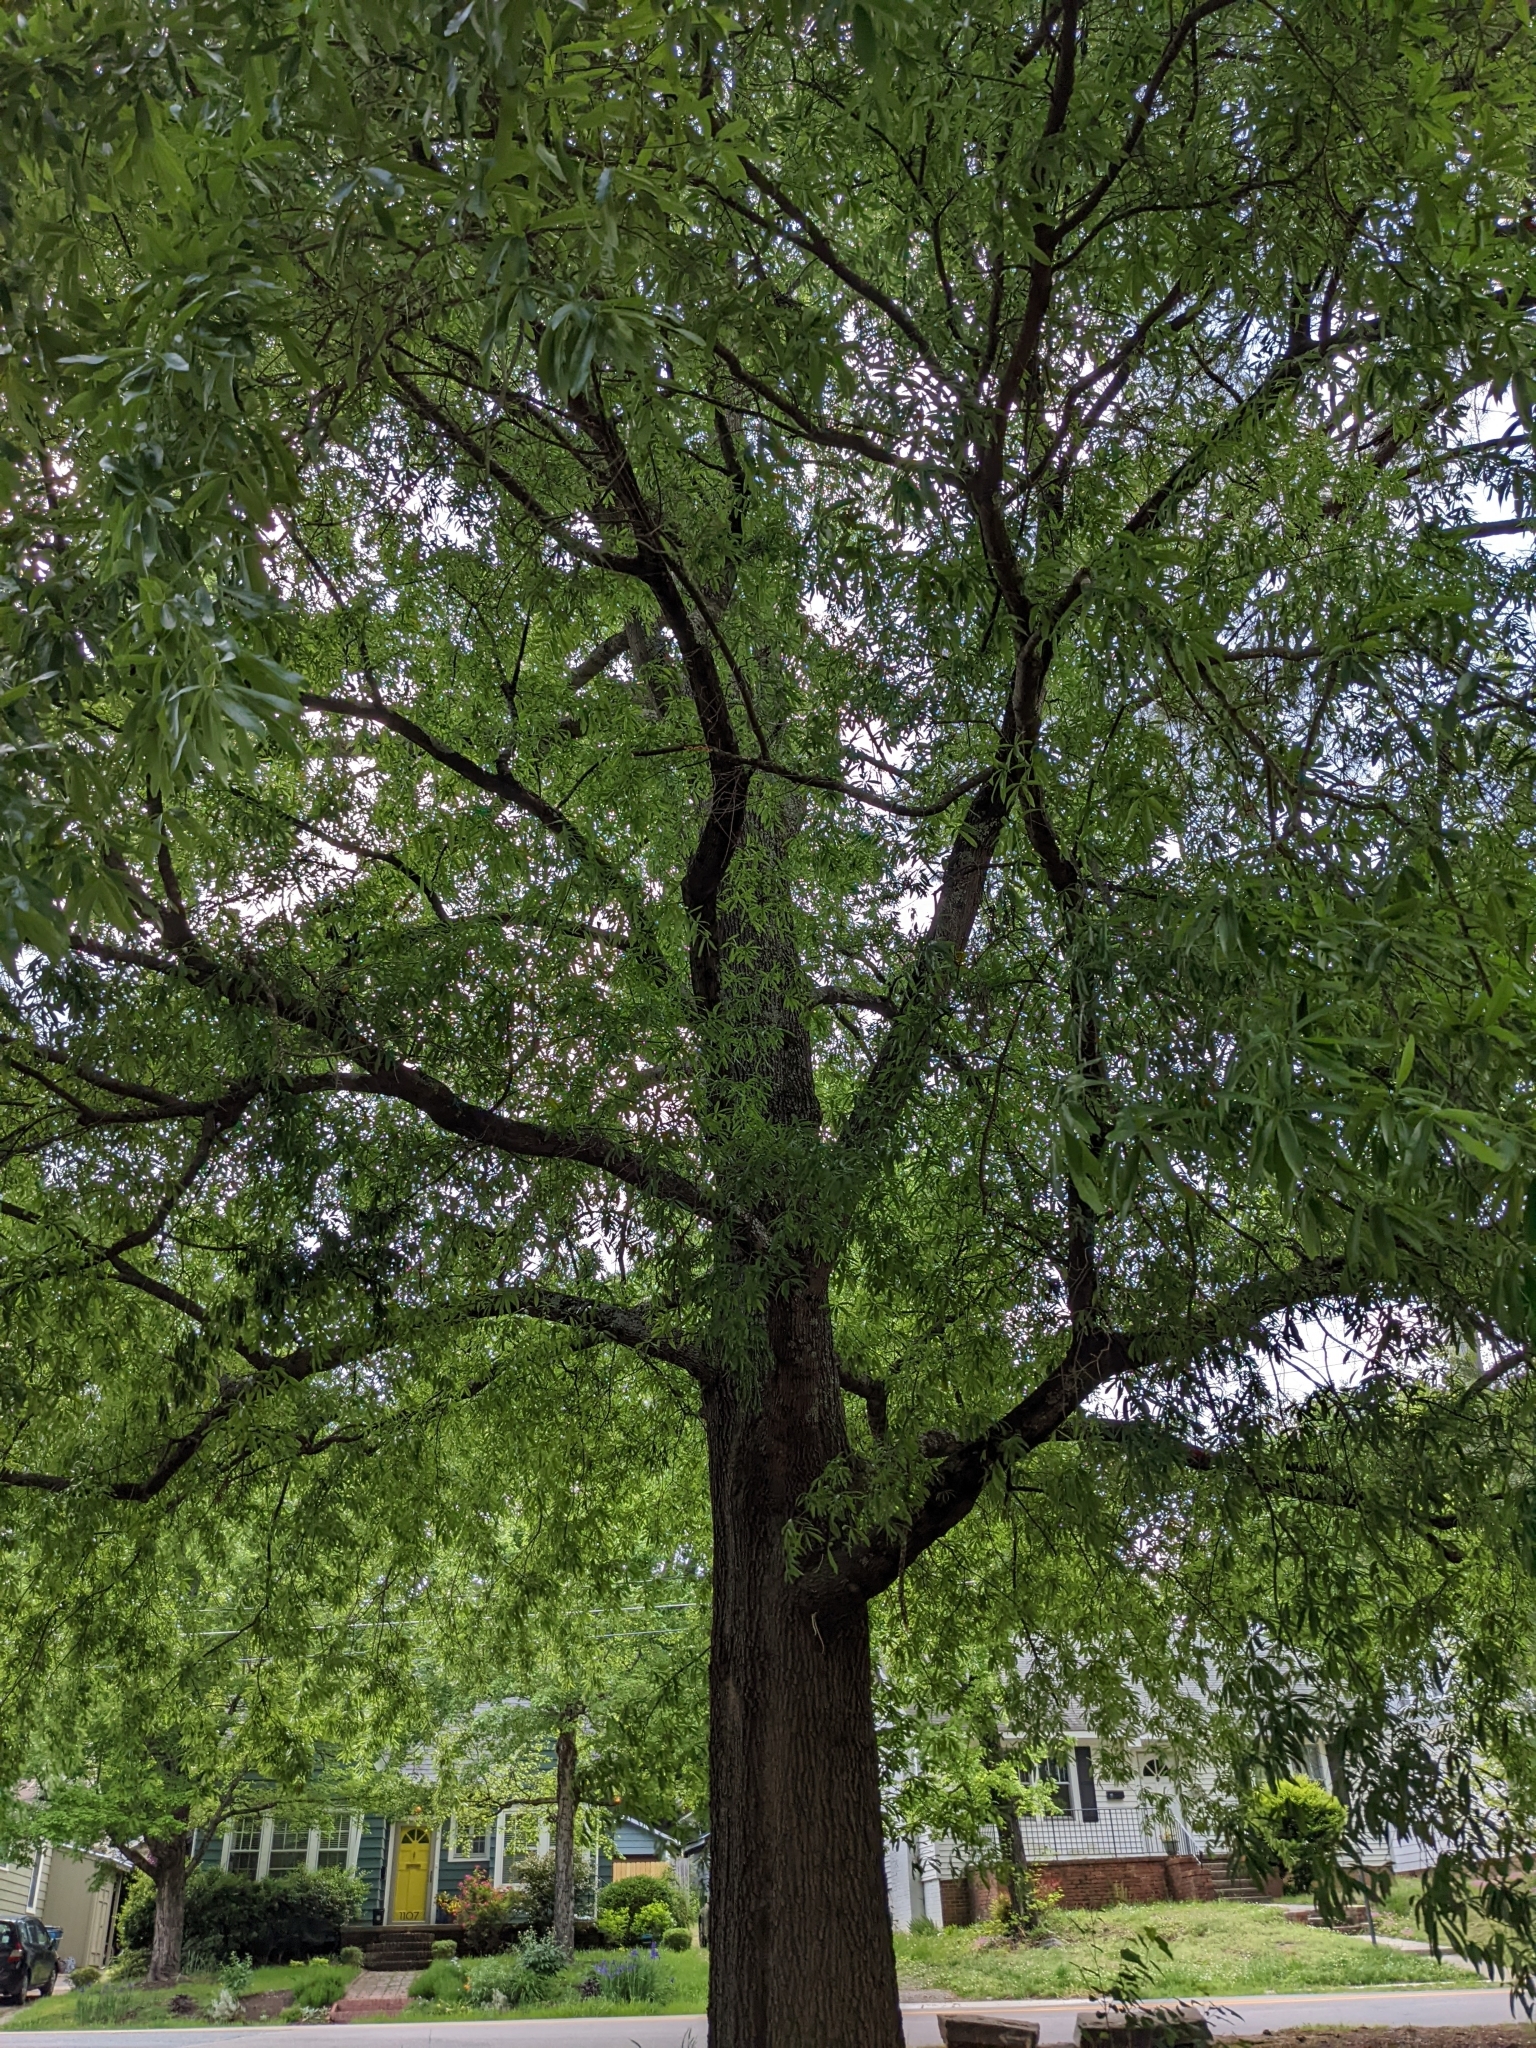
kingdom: Plantae
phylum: Tracheophyta
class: Magnoliopsida
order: Fagales
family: Fagaceae
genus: Quercus
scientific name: Quercus phellos
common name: Willow oak
